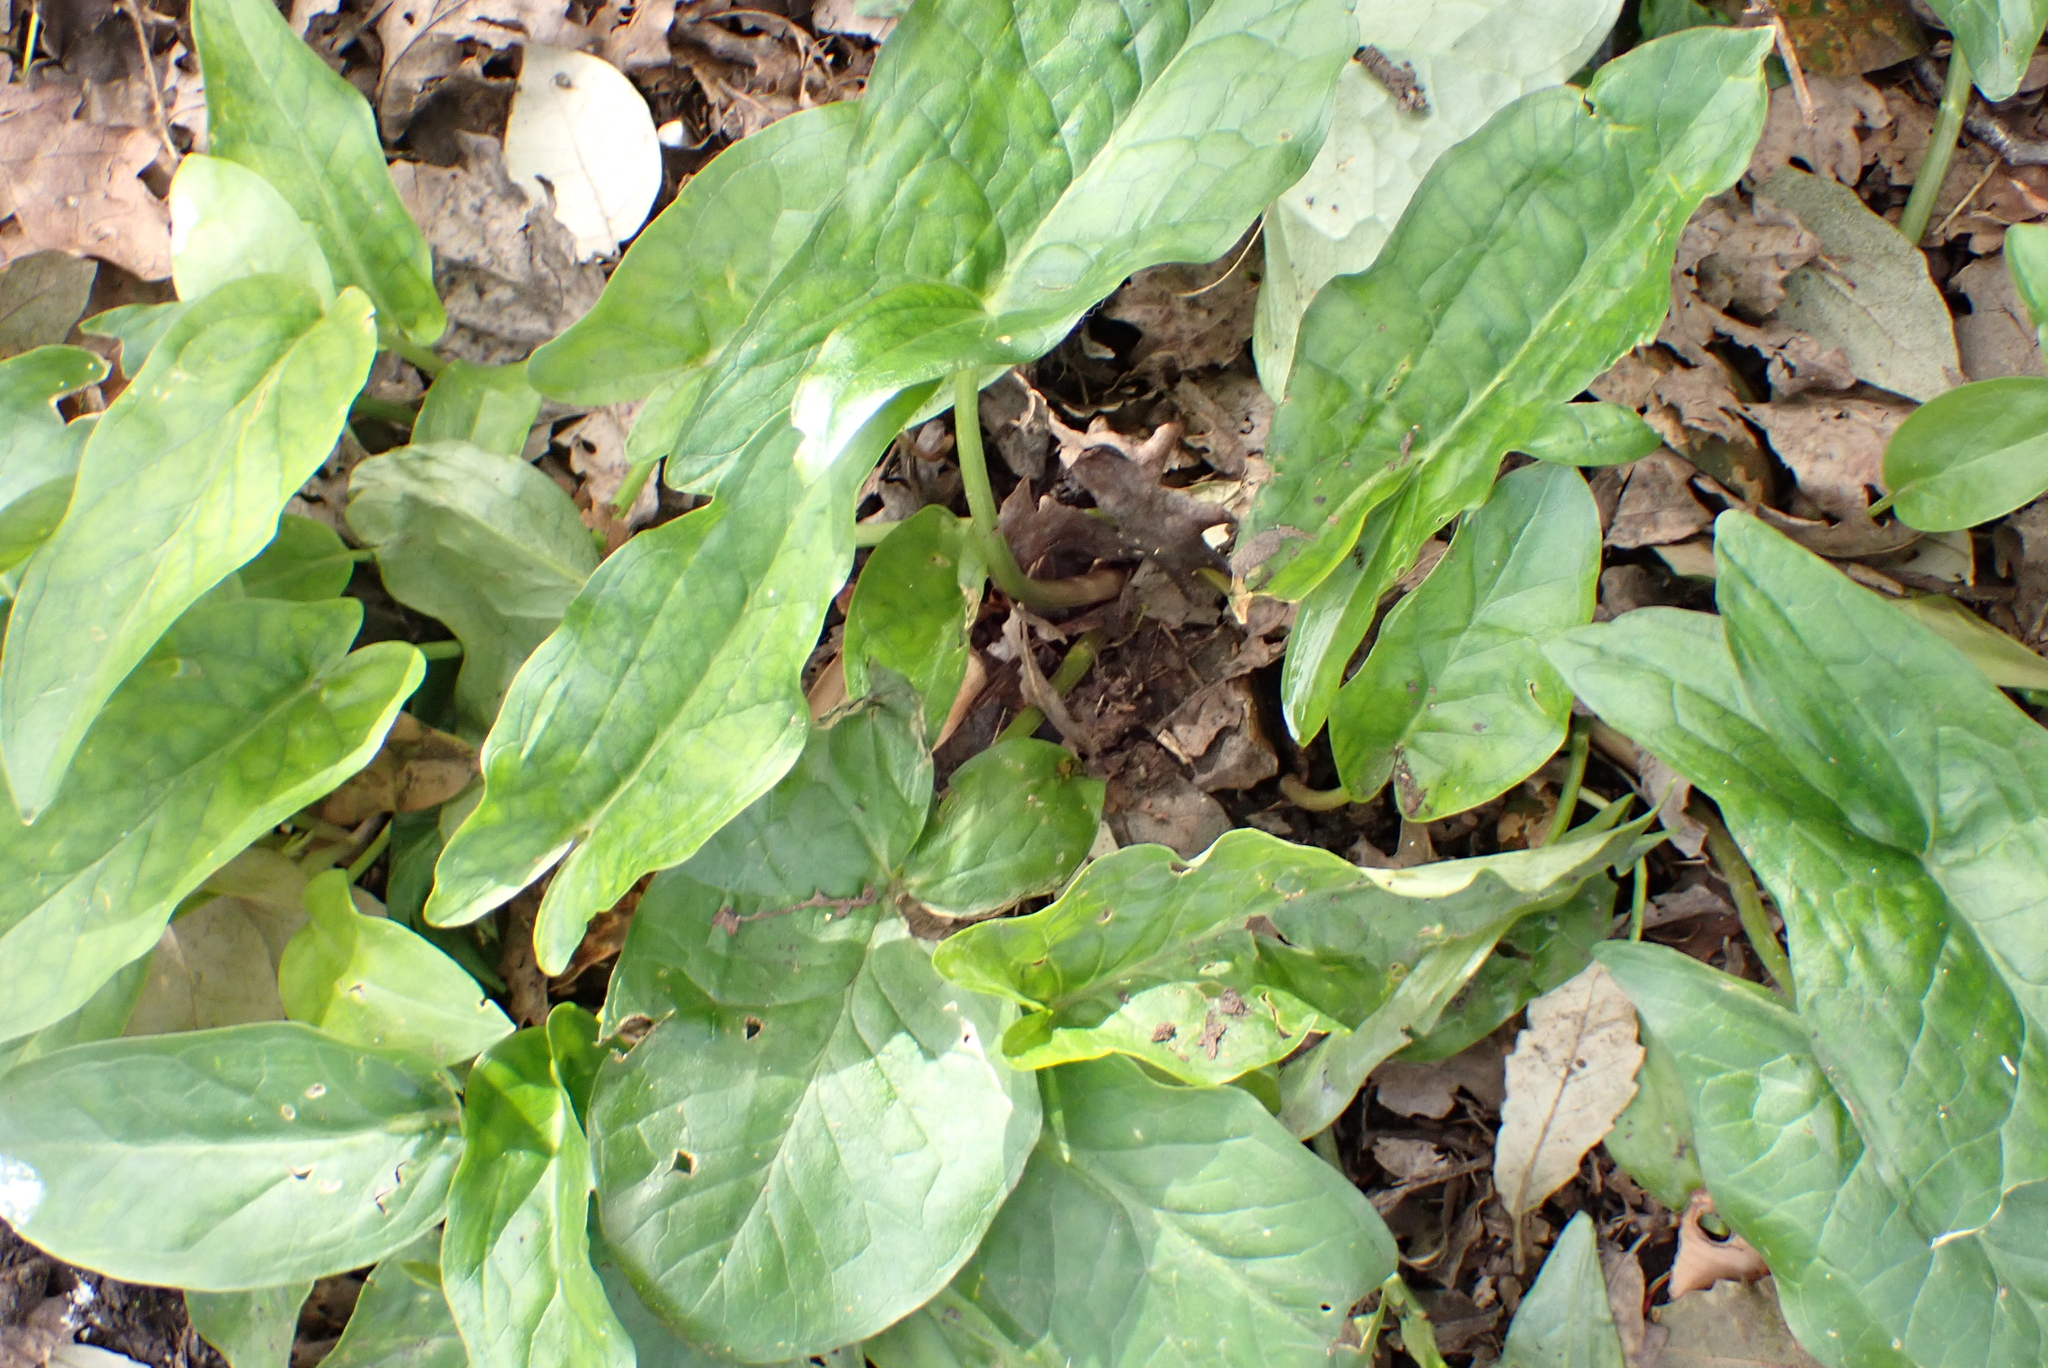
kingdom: Plantae
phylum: Tracheophyta
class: Liliopsida
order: Alismatales
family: Araceae
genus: Arum
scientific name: Arum maculatum
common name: Lords-and-ladies
